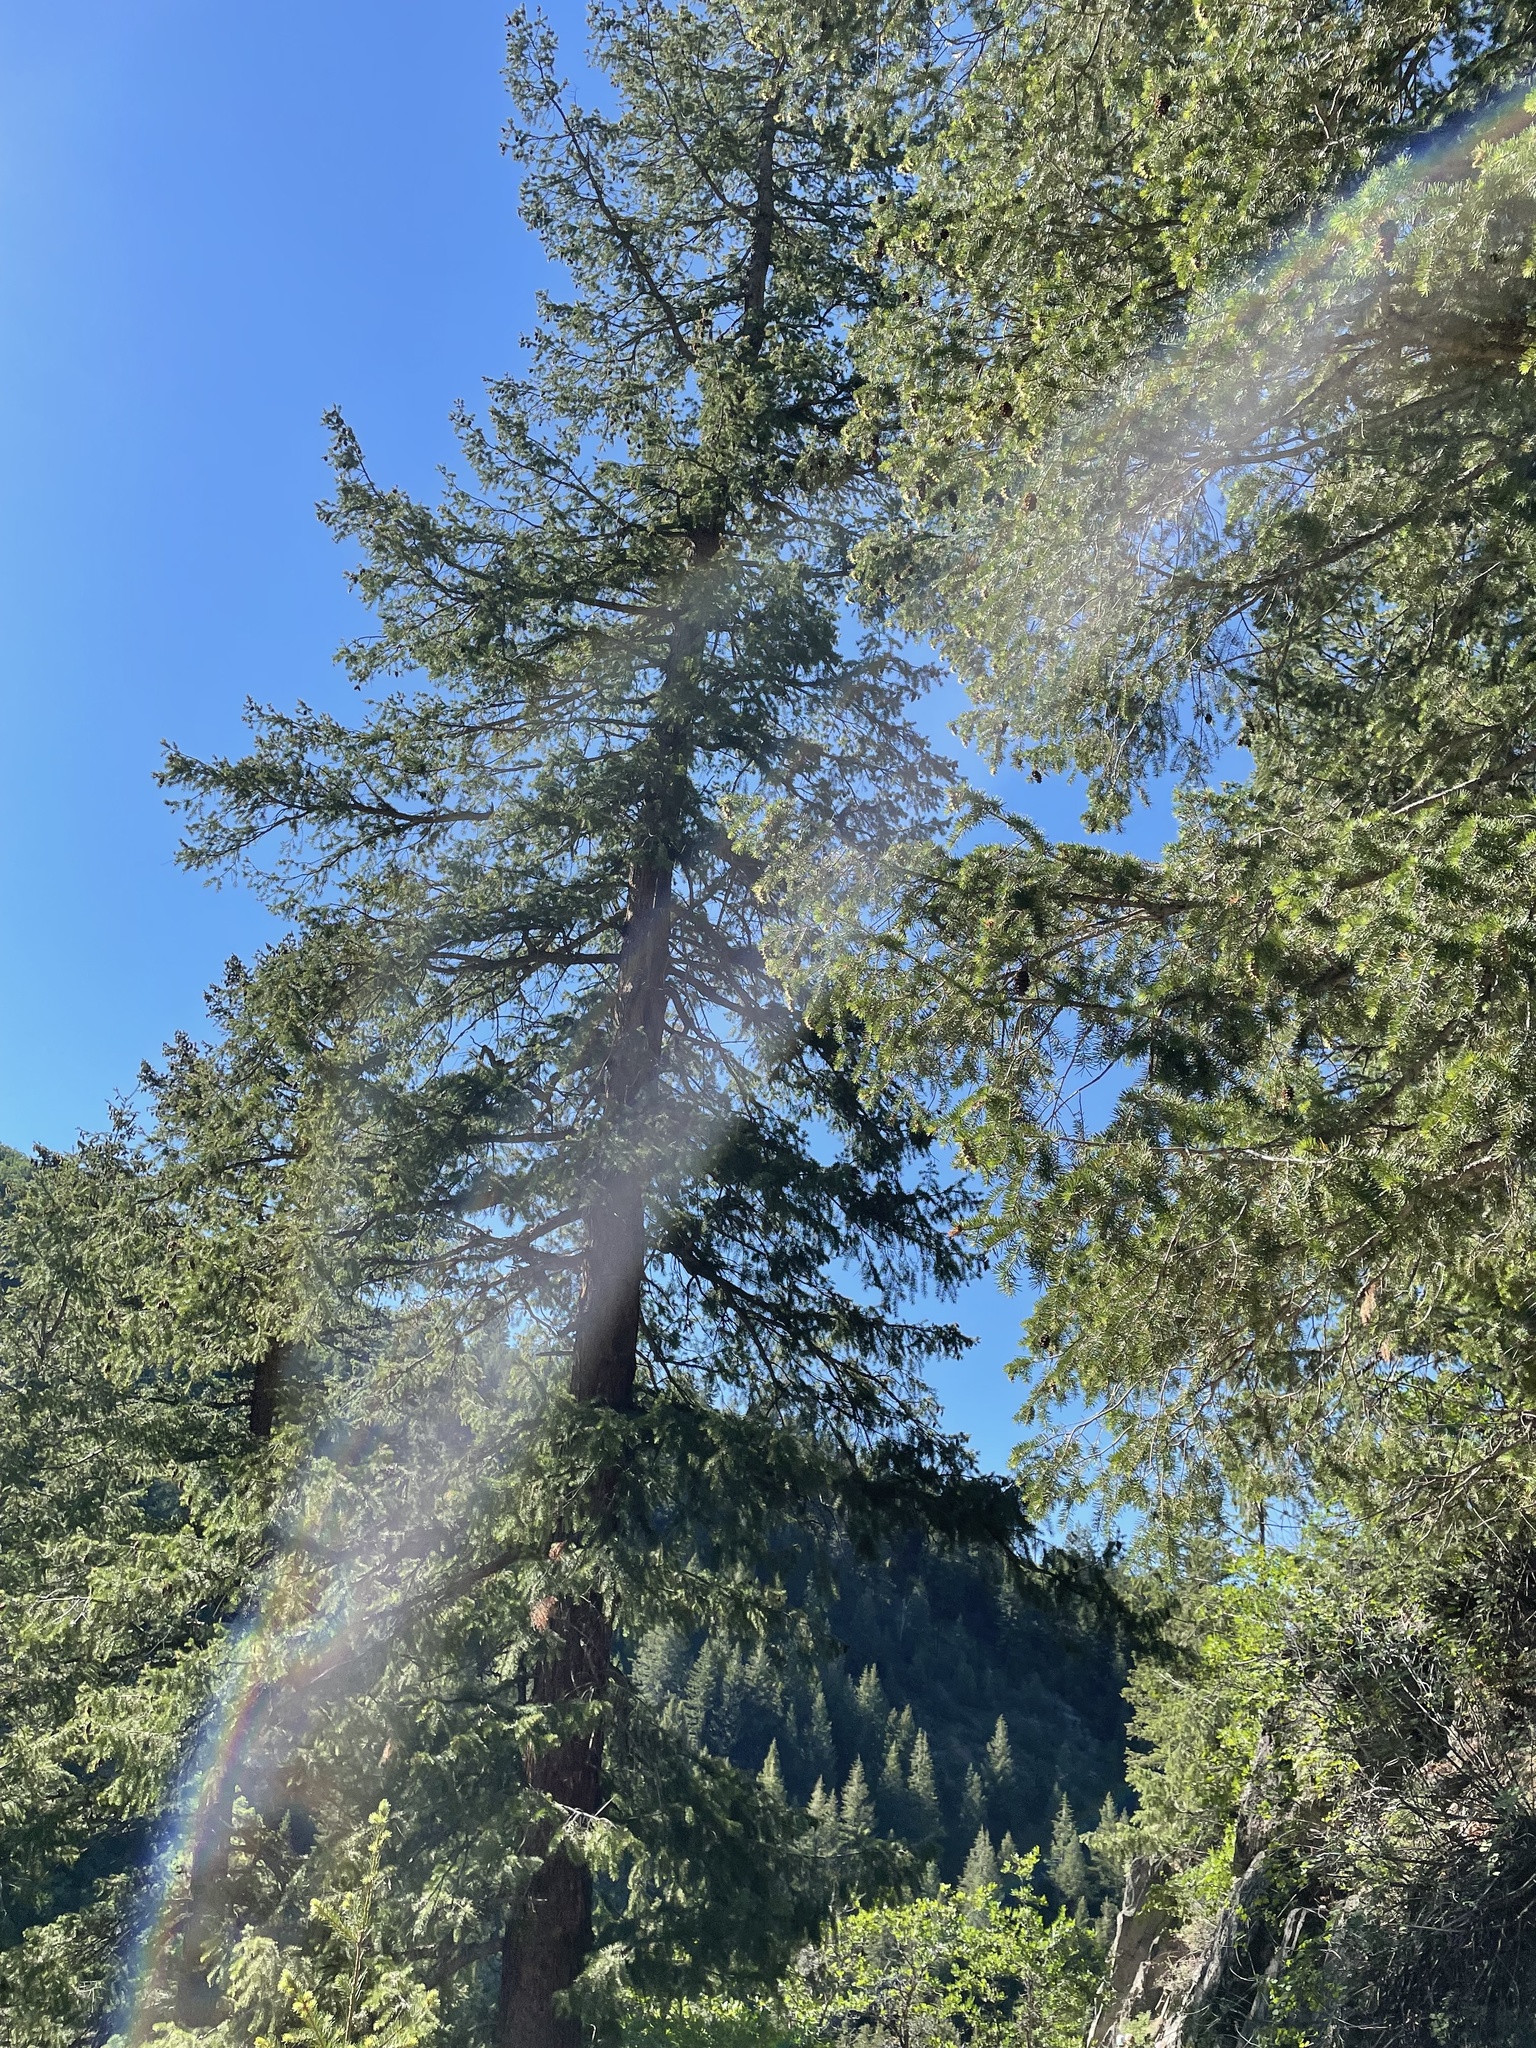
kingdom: Plantae
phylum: Tracheophyta
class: Pinopsida
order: Pinales
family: Pinaceae
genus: Pseudotsuga
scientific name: Pseudotsuga menziesii
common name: Douglas fir
